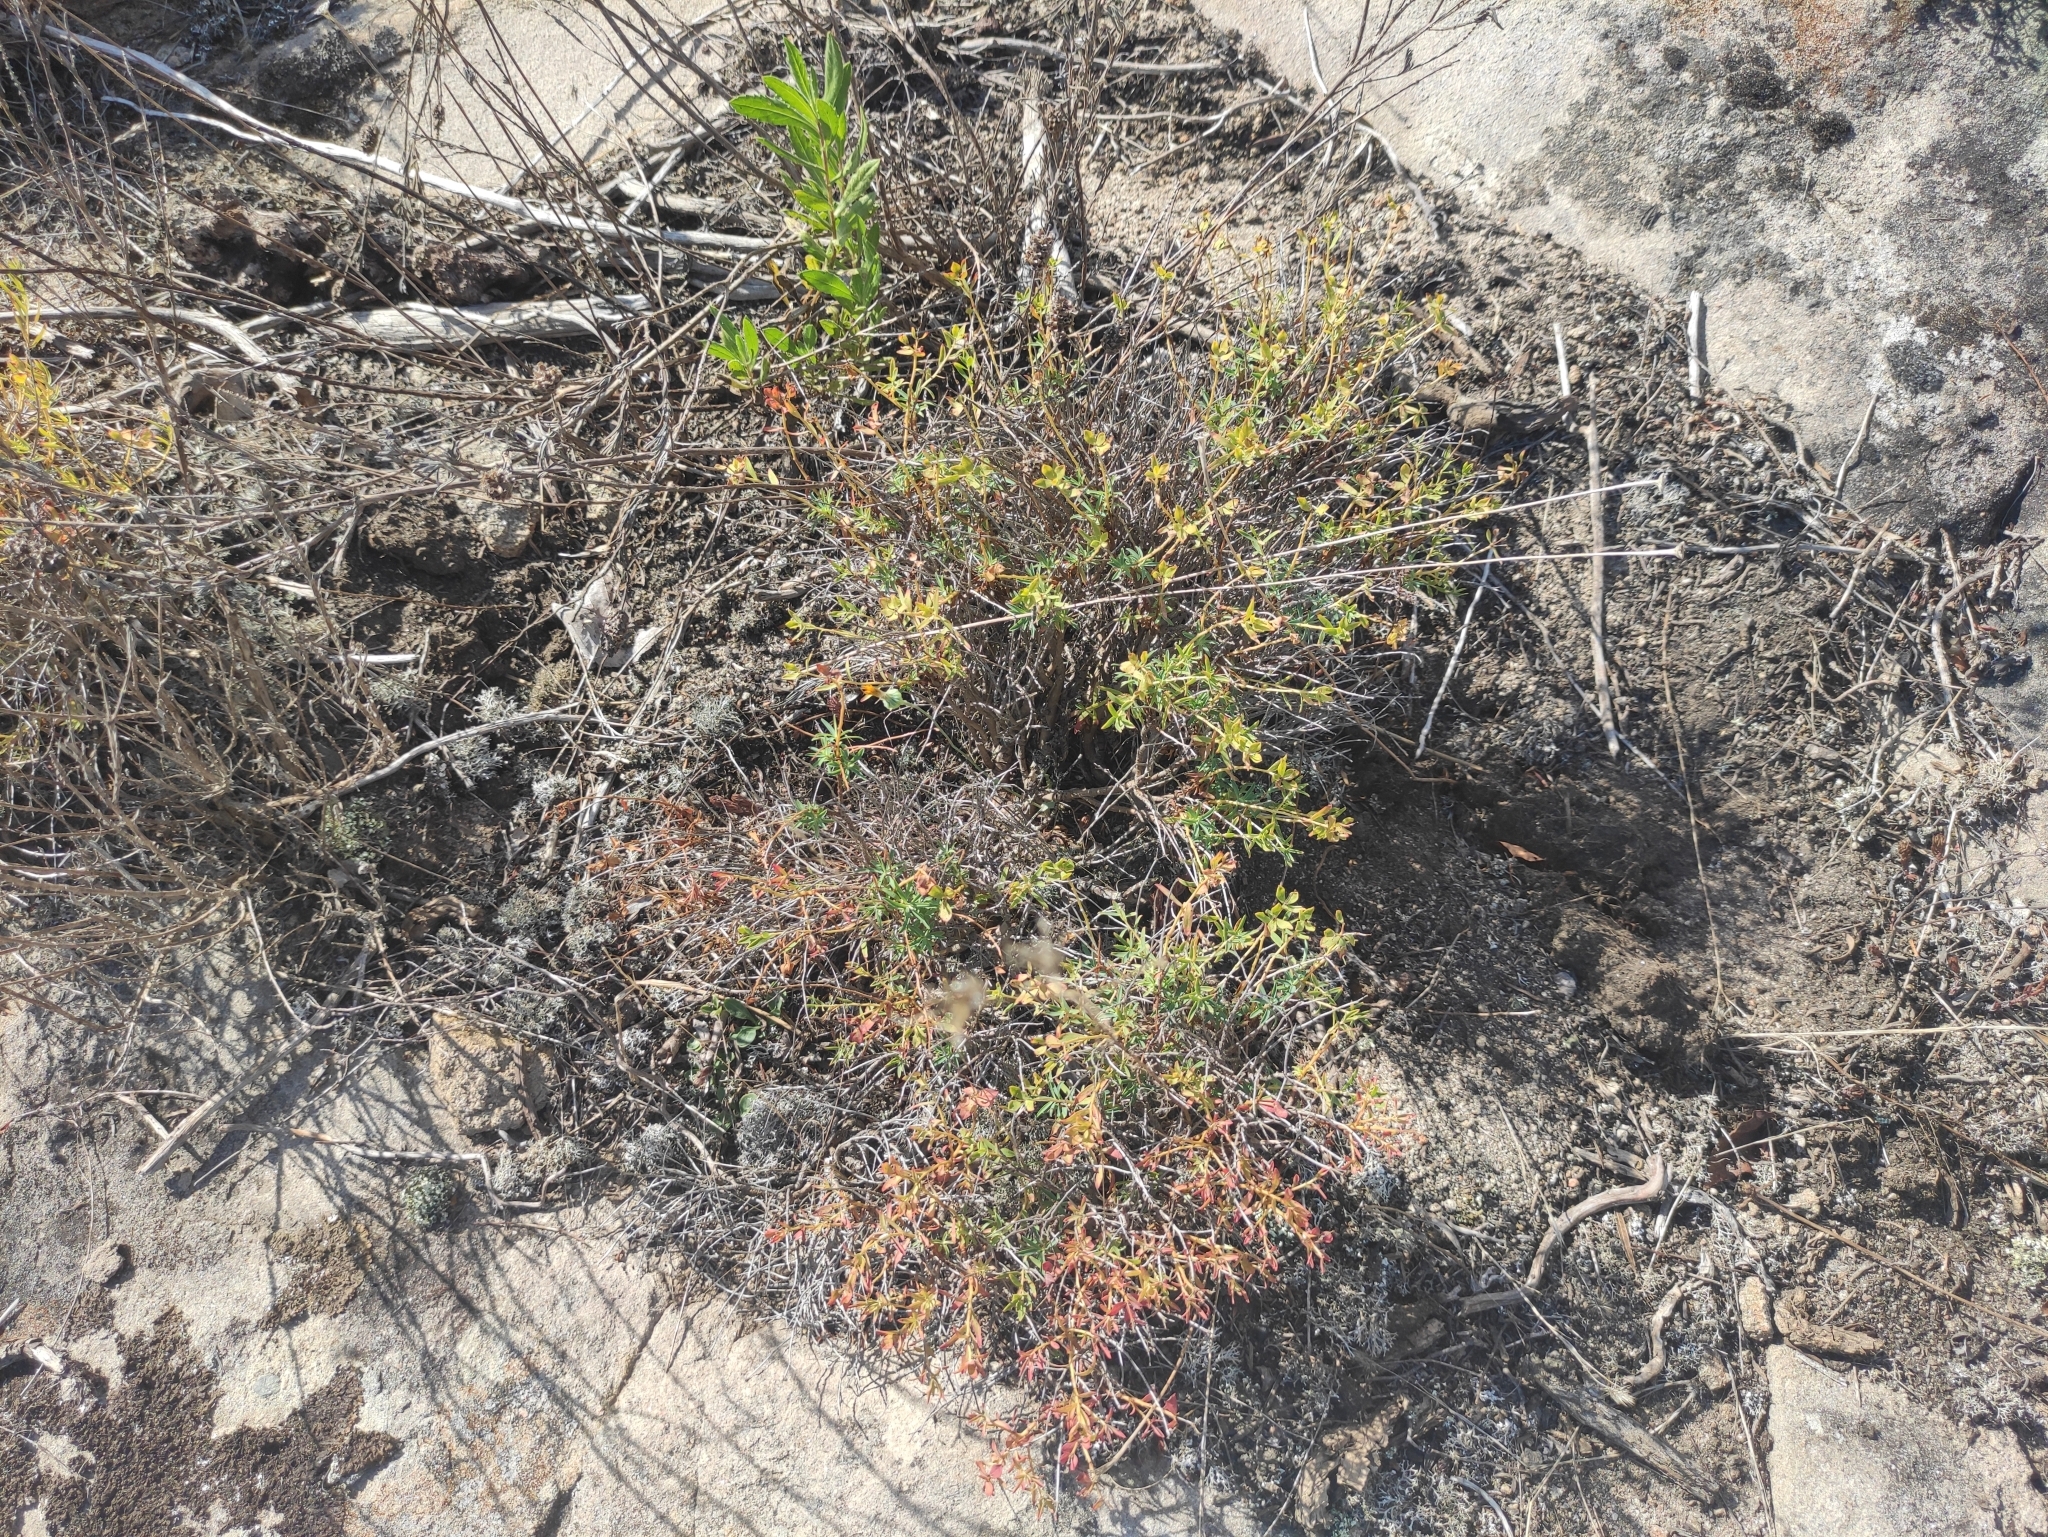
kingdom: Plantae
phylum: Tracheophyta
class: Magnoliopsida
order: Malpighiales
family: Euphorbiaceae
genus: Euphorbia
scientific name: Euphorbia spinosa
